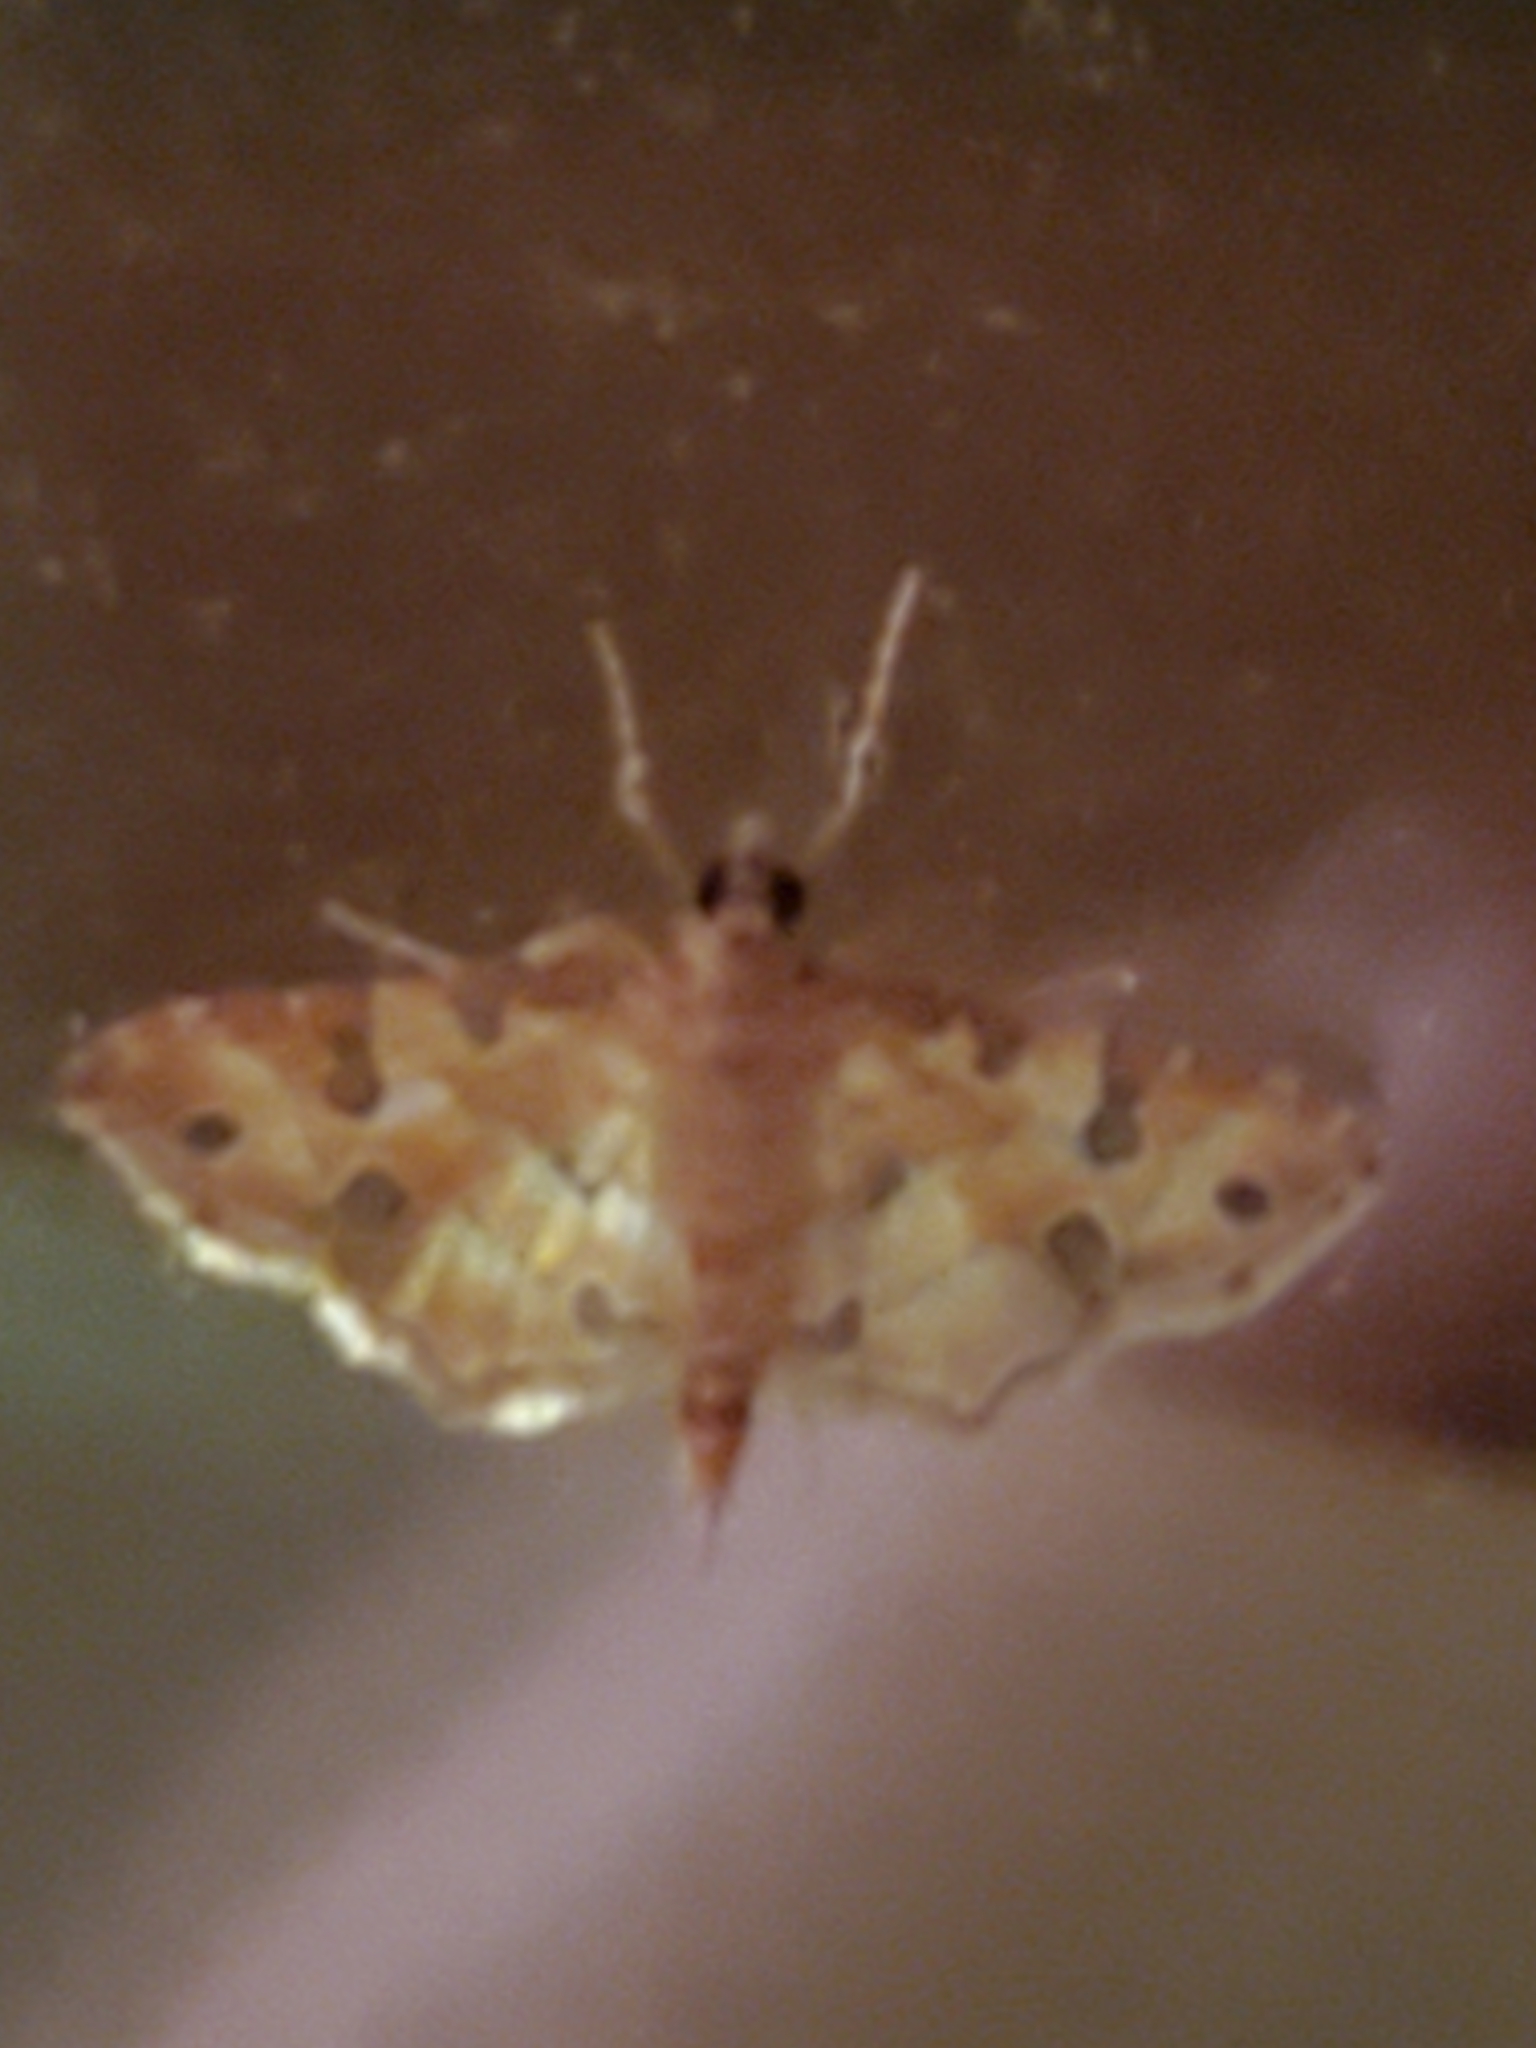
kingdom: Animalia
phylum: Arthropoda
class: Insecta
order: Lepidoptera
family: Crambidae
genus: Ommatospila
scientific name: Ommatospila narcaeusalis
